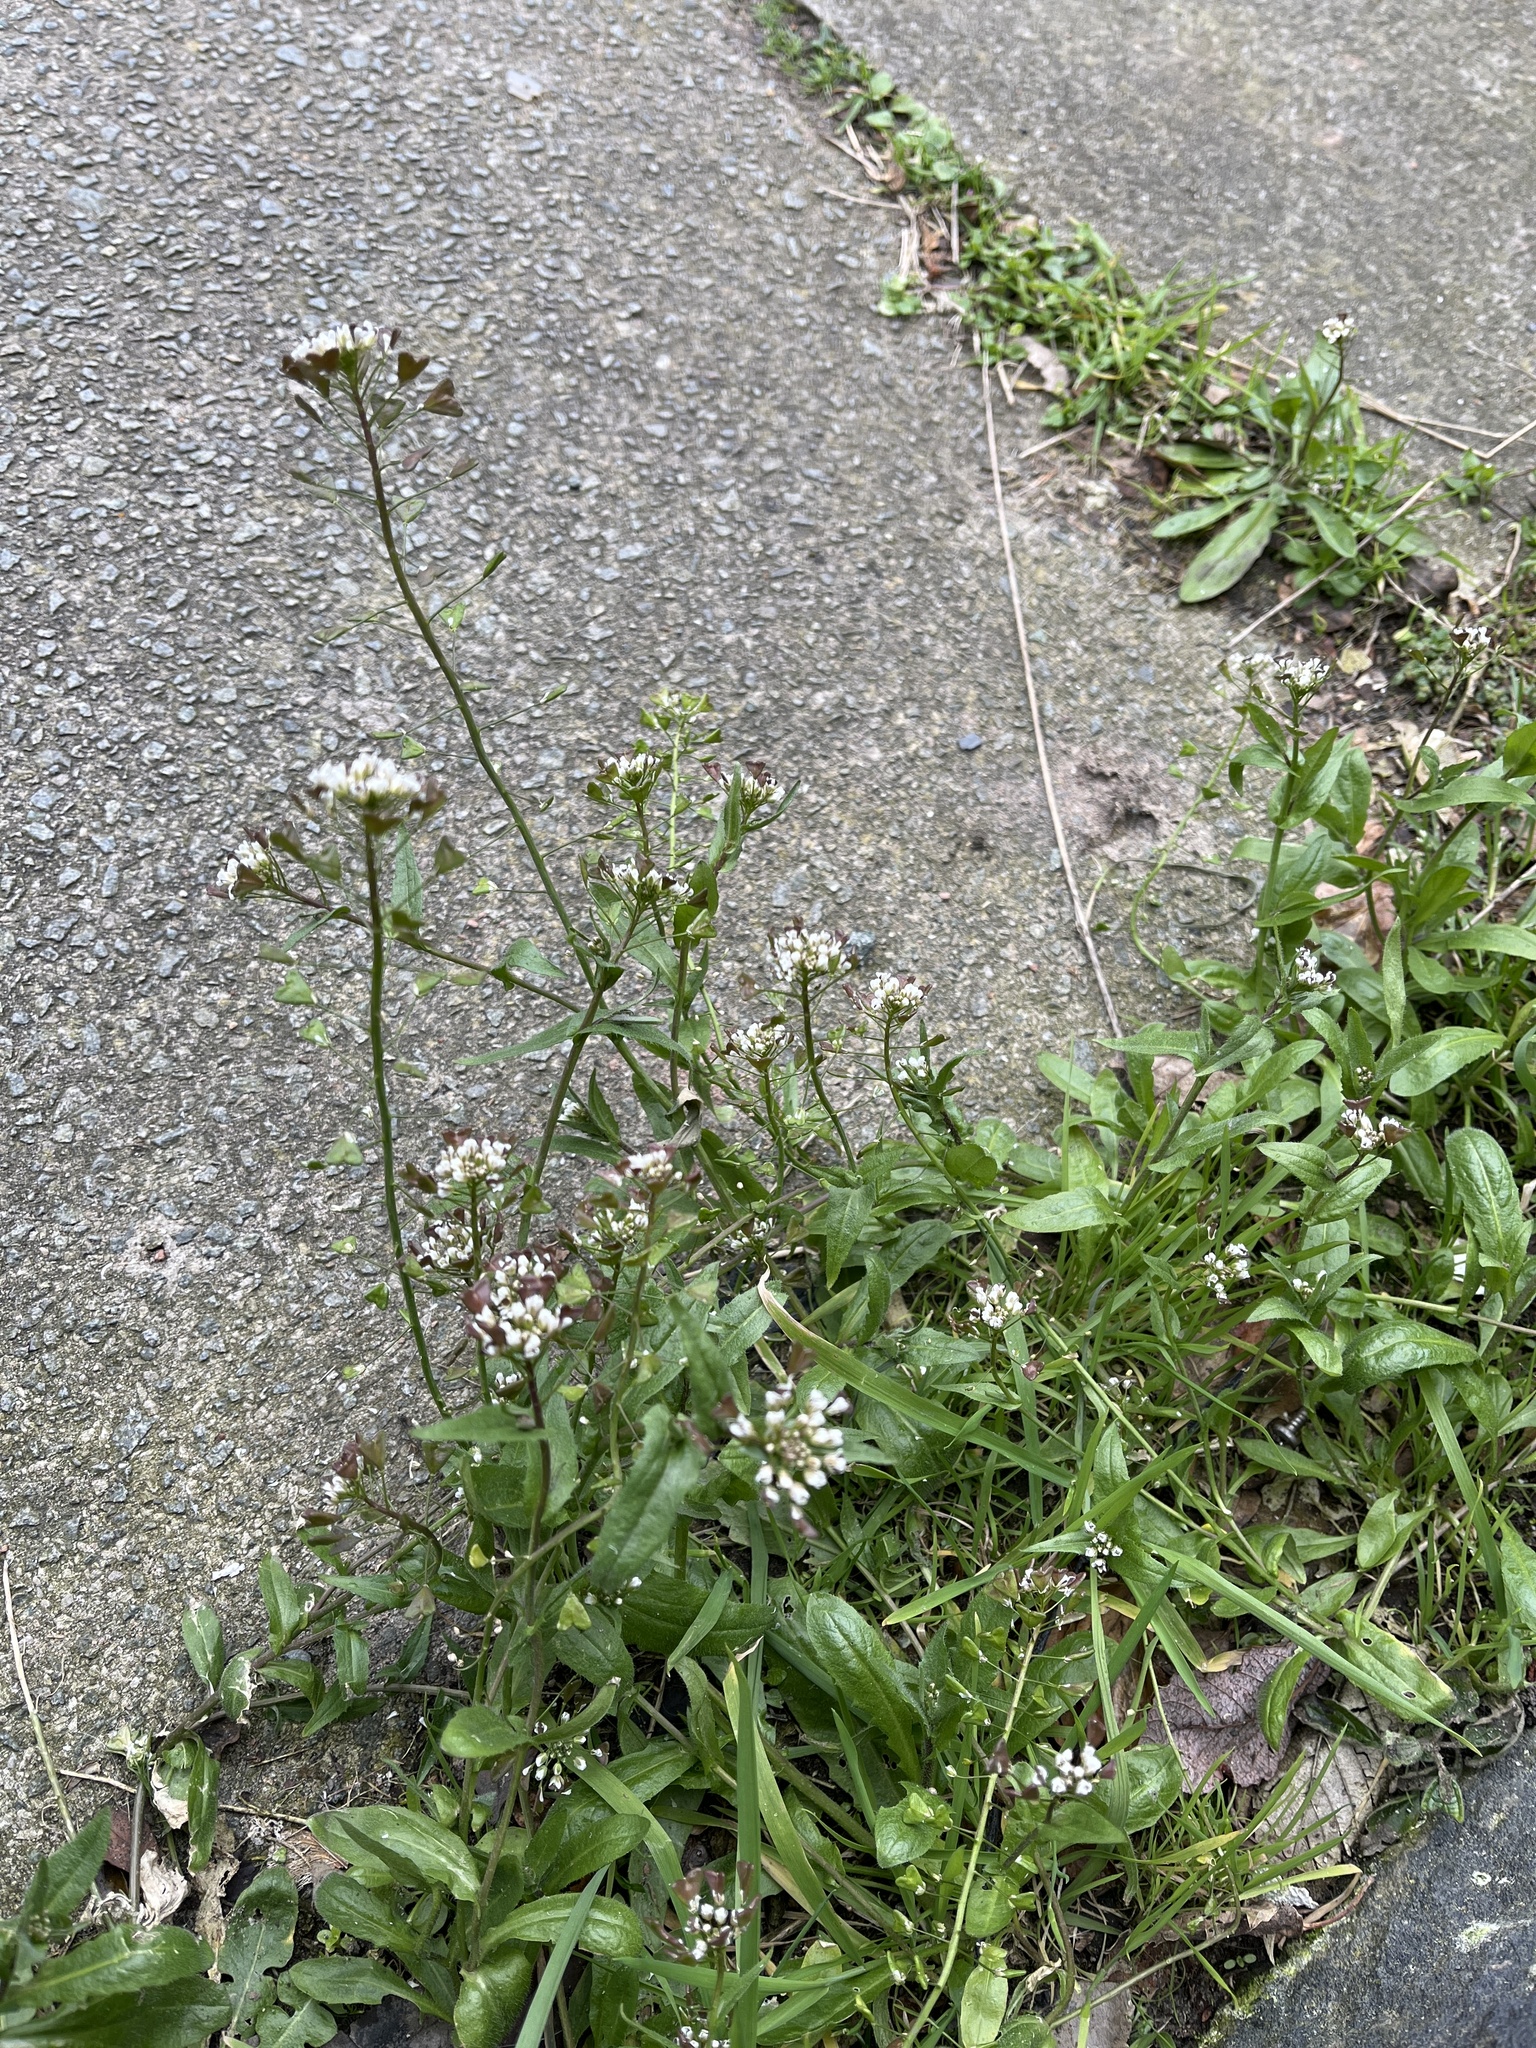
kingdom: Plantae
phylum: Tracheophyta
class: Magnoliopsida
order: Brassicales
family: Brassicaceae
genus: Capsella
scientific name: Capsella bursa-pastoris
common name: Shepherd's purse
